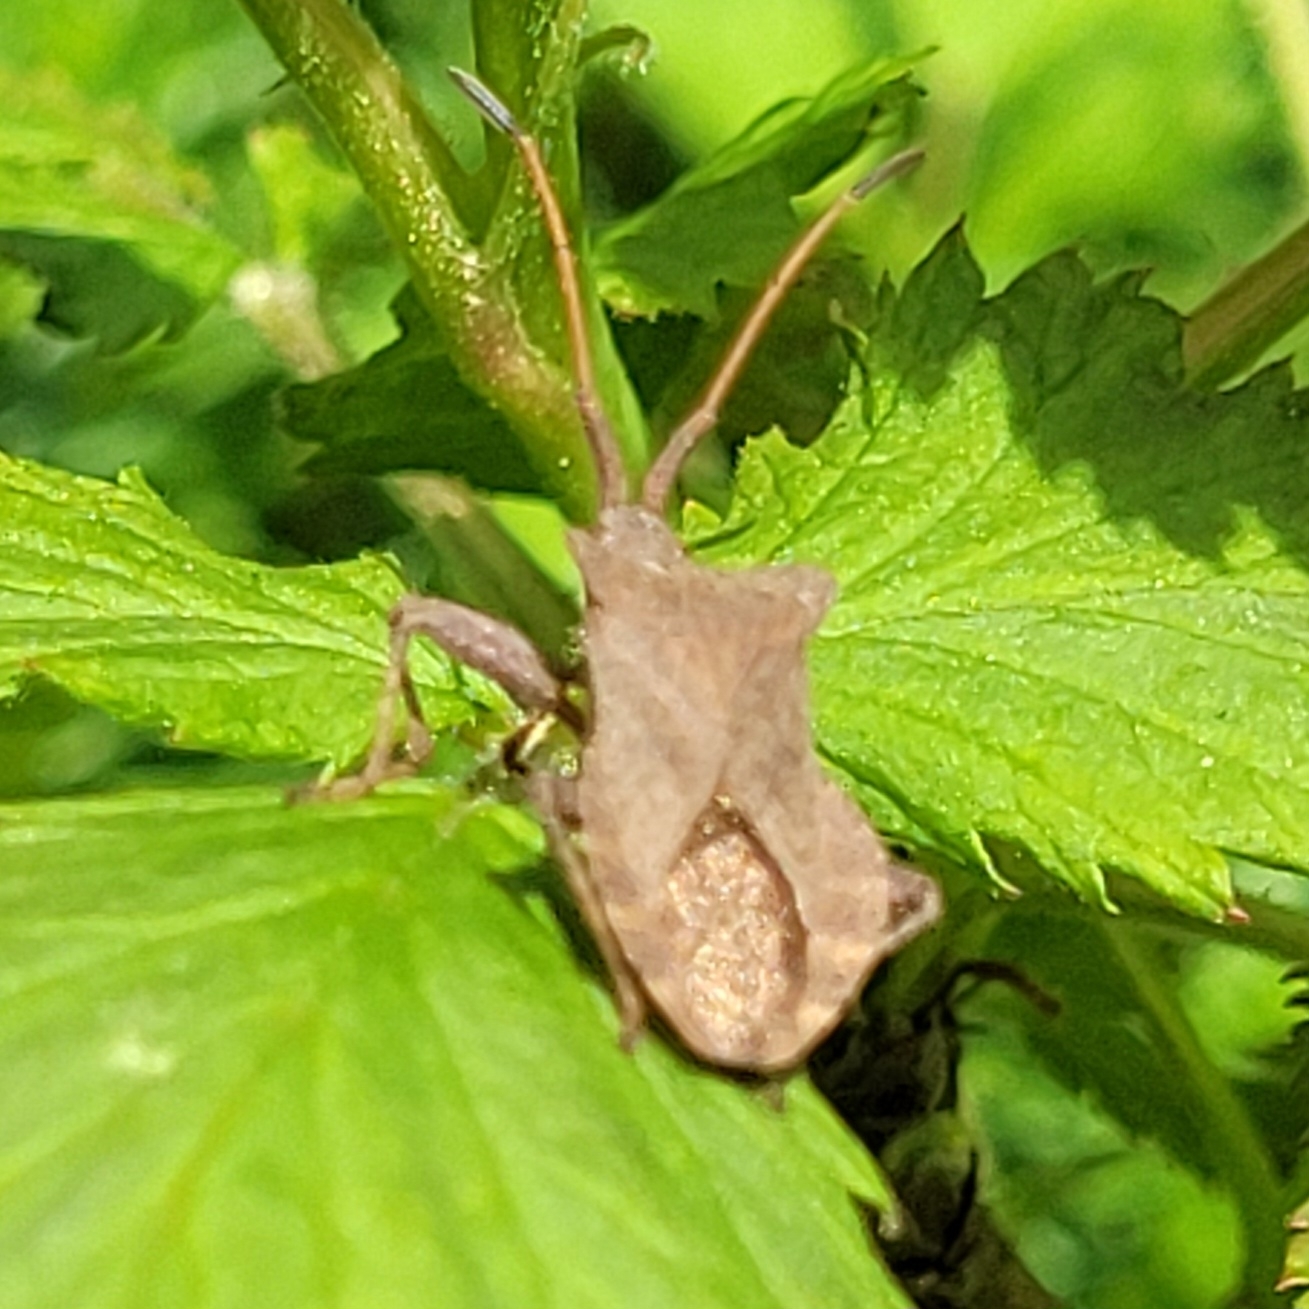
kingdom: Animalia
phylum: Arthropoda
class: Insecta
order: Hemiptera
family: Coreidae
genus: Coreus
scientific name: Coreus marginatus
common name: Dock bug
